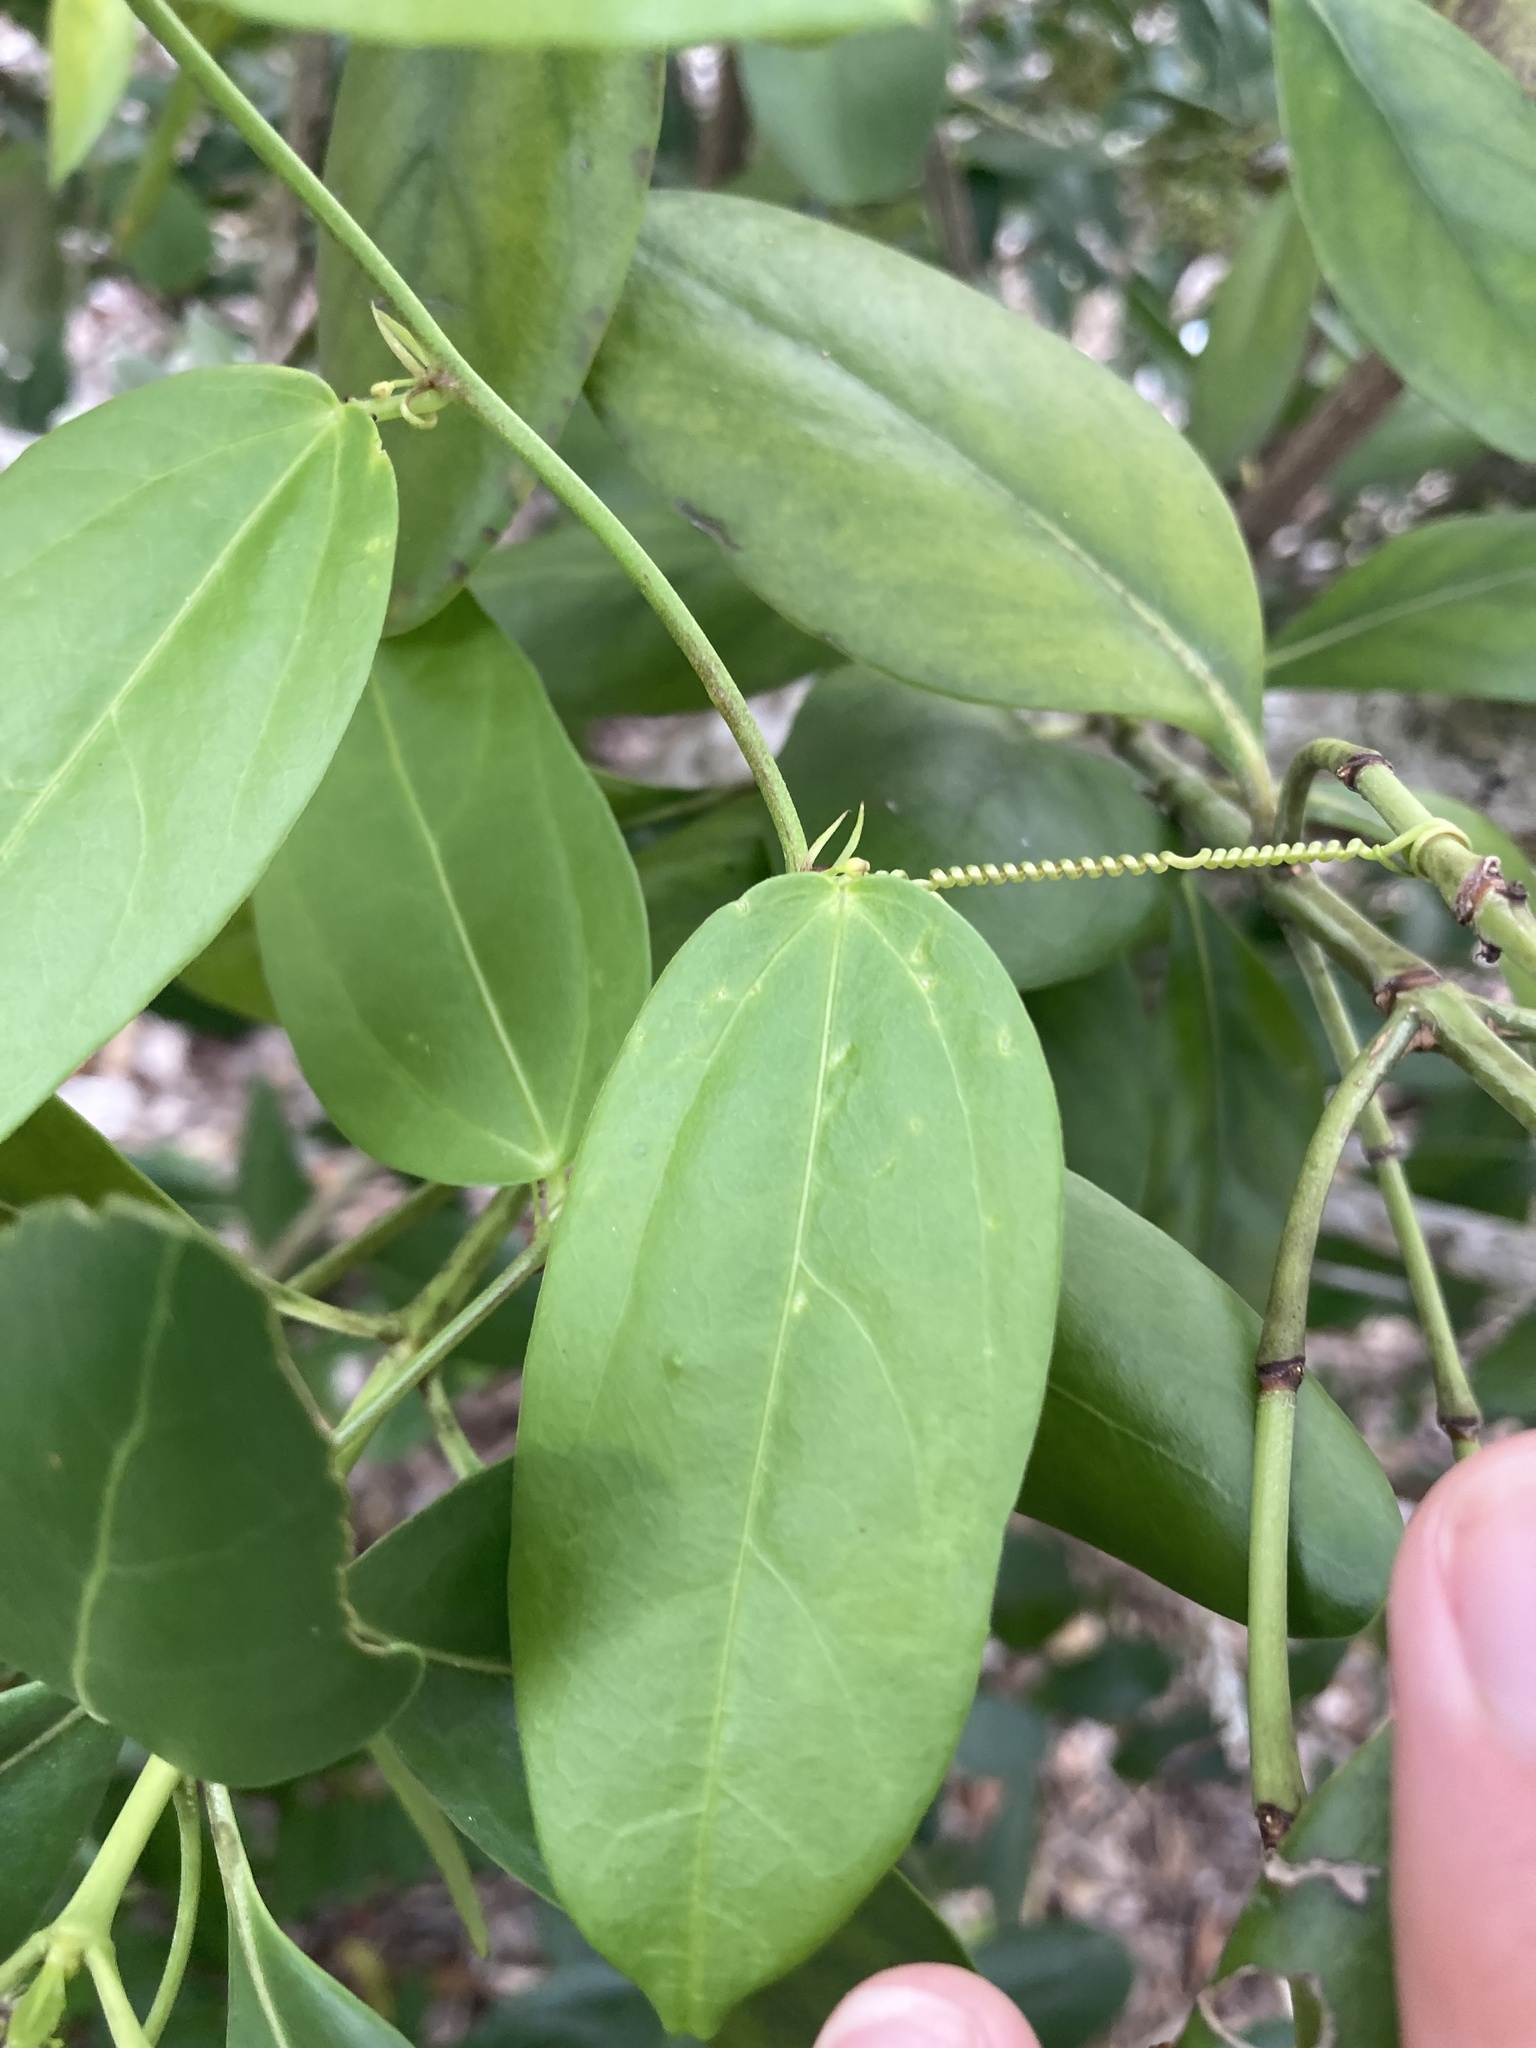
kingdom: Plantae
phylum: Tracheophyta
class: Magnoliopsida
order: Malpighiales
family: Passifloraceae
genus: Passiflora
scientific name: Passiflora pallida
